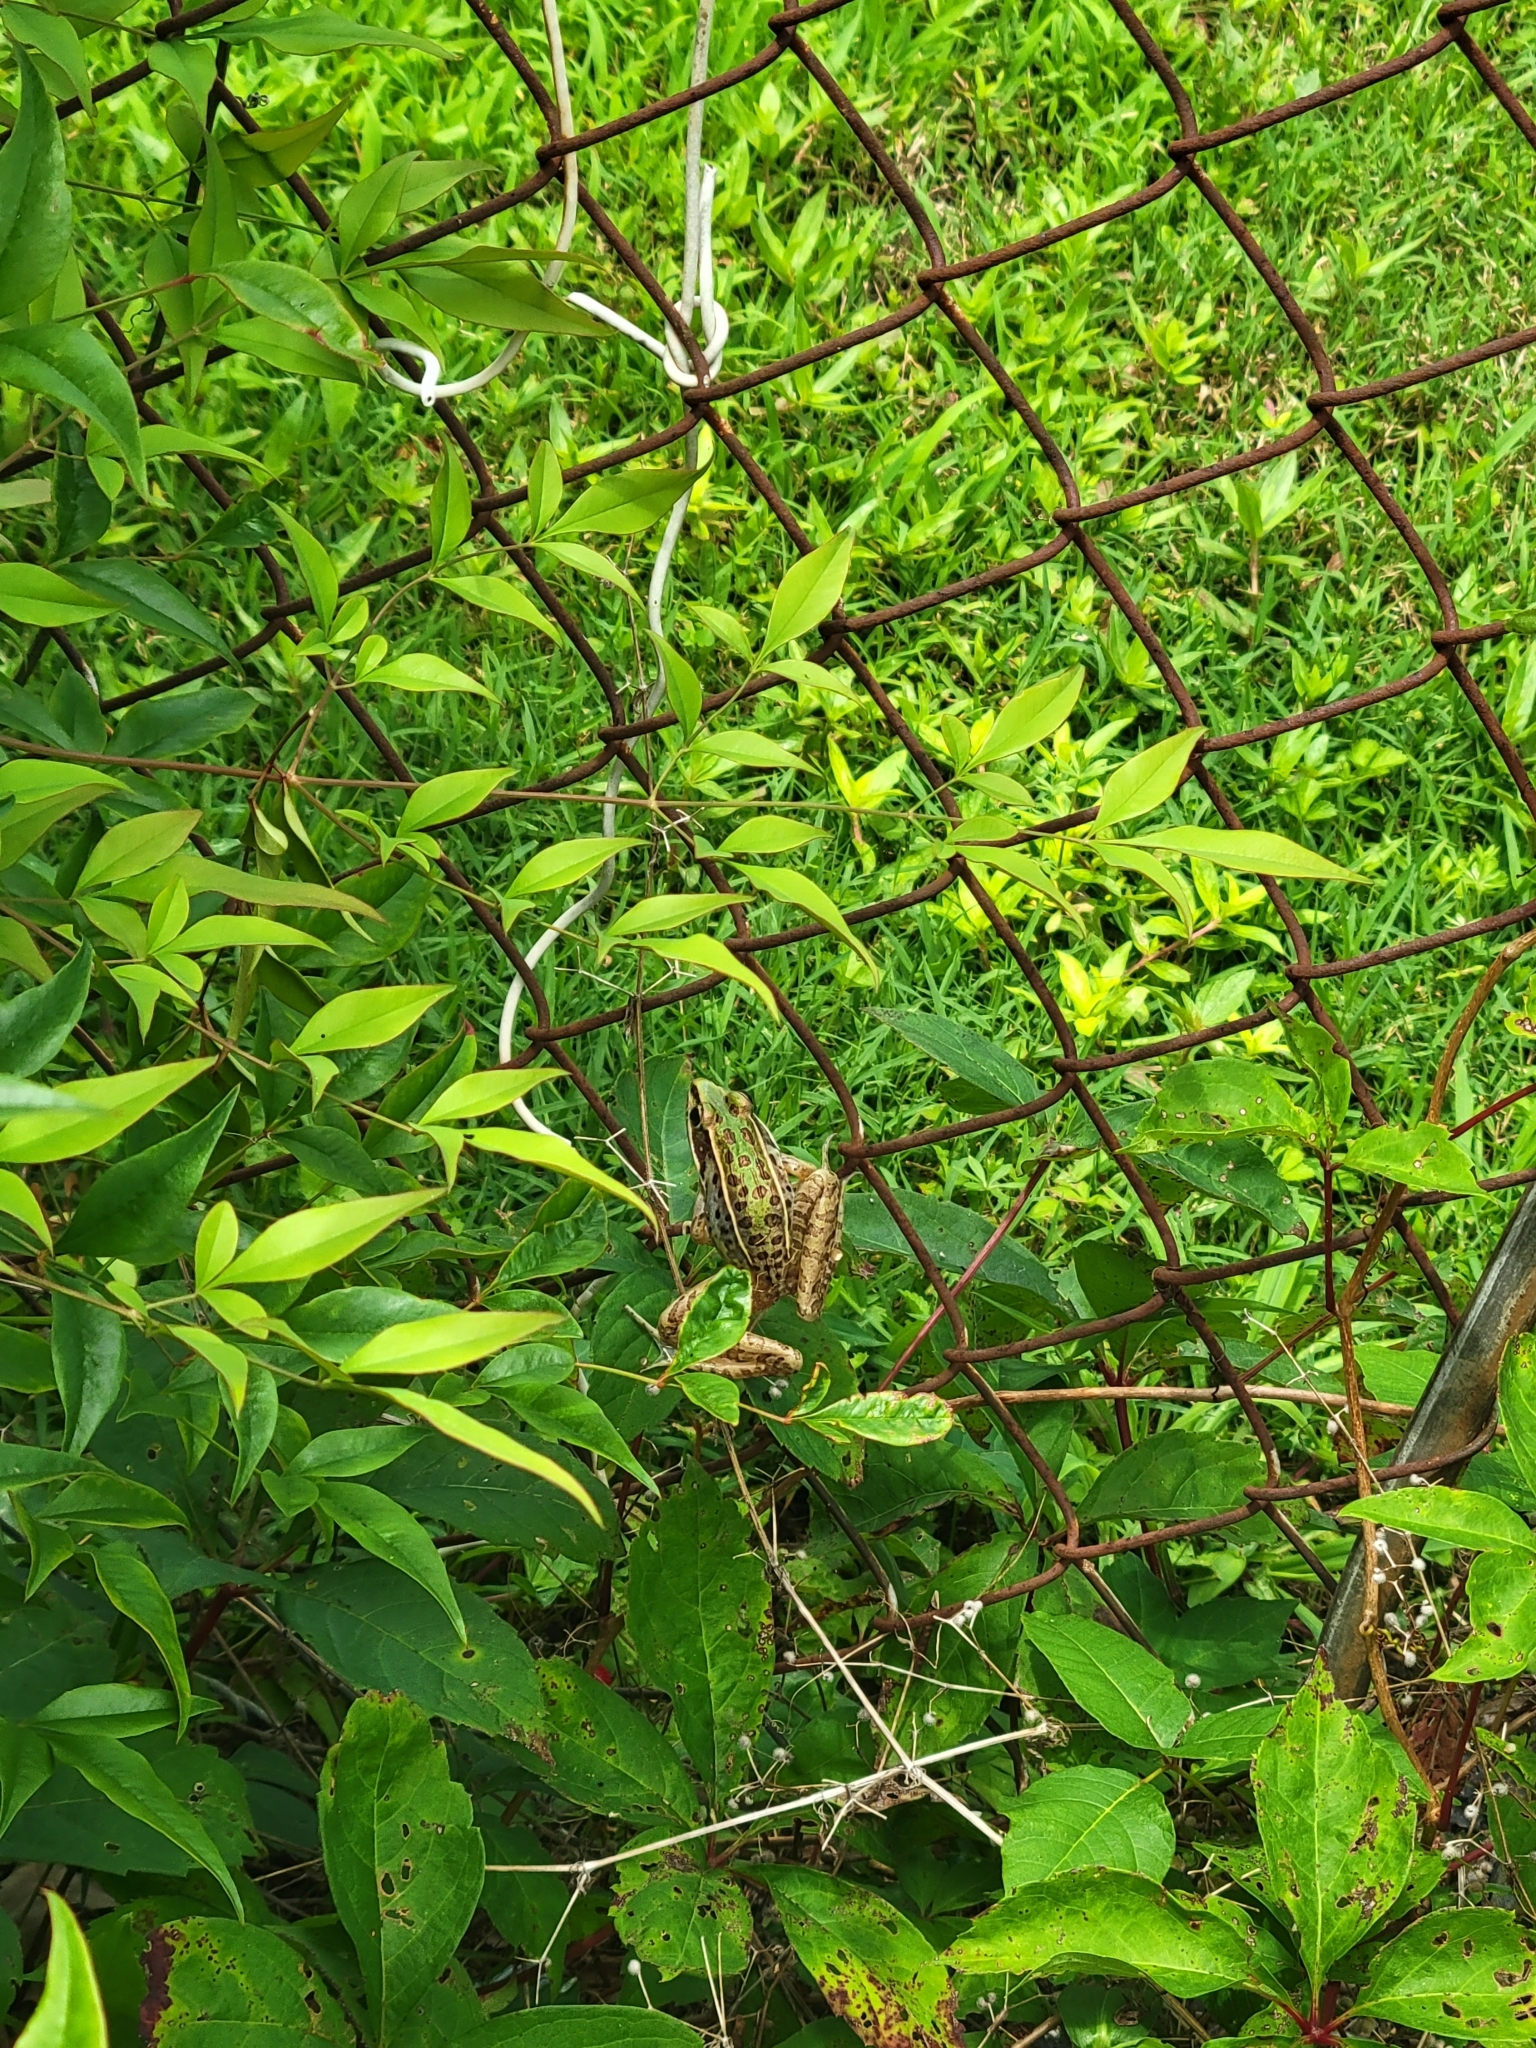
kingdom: Animalia
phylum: Chordata
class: Amphibia
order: Anura
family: Ranidae
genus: Lithobates
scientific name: Lithobates sphenocephalus
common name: Southern leopard frog
